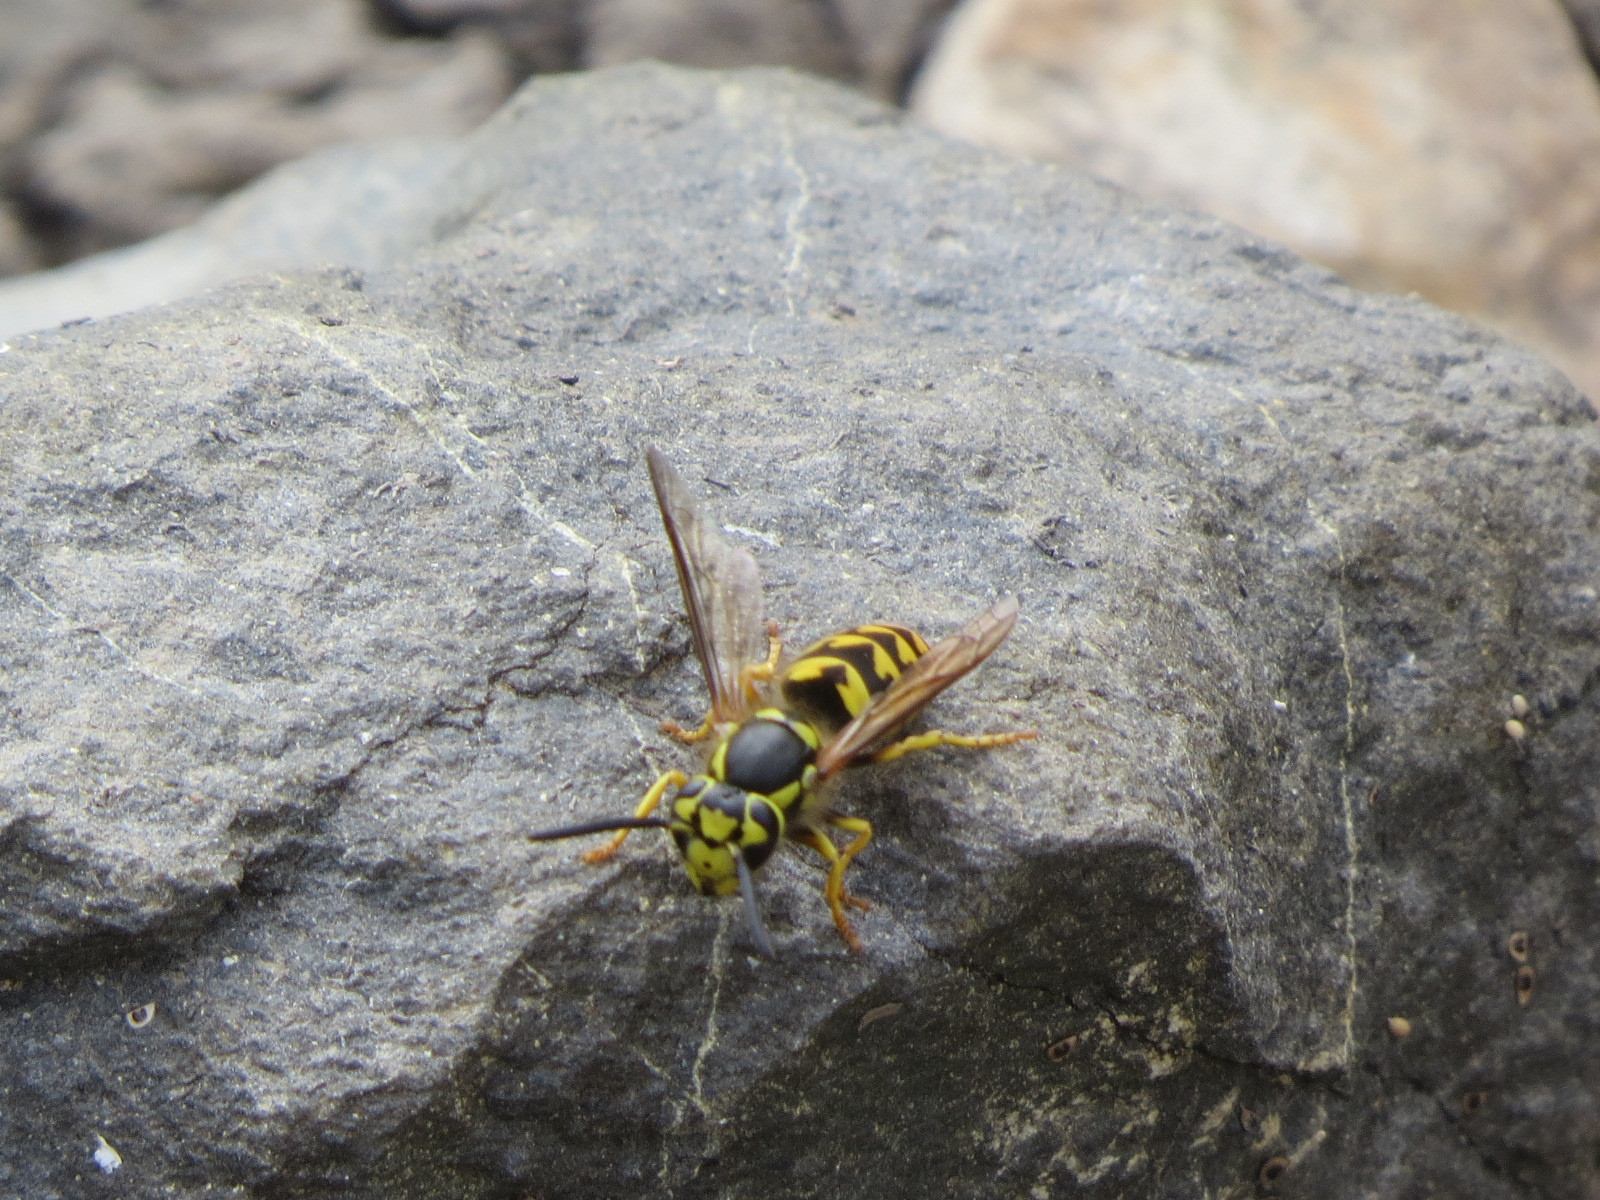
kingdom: Animalia
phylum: Arthropoda
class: Insecta
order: Hymenoptera
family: Vespidae
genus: Vespula
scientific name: Vespula pensylvanica
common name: Western yellowjacket
